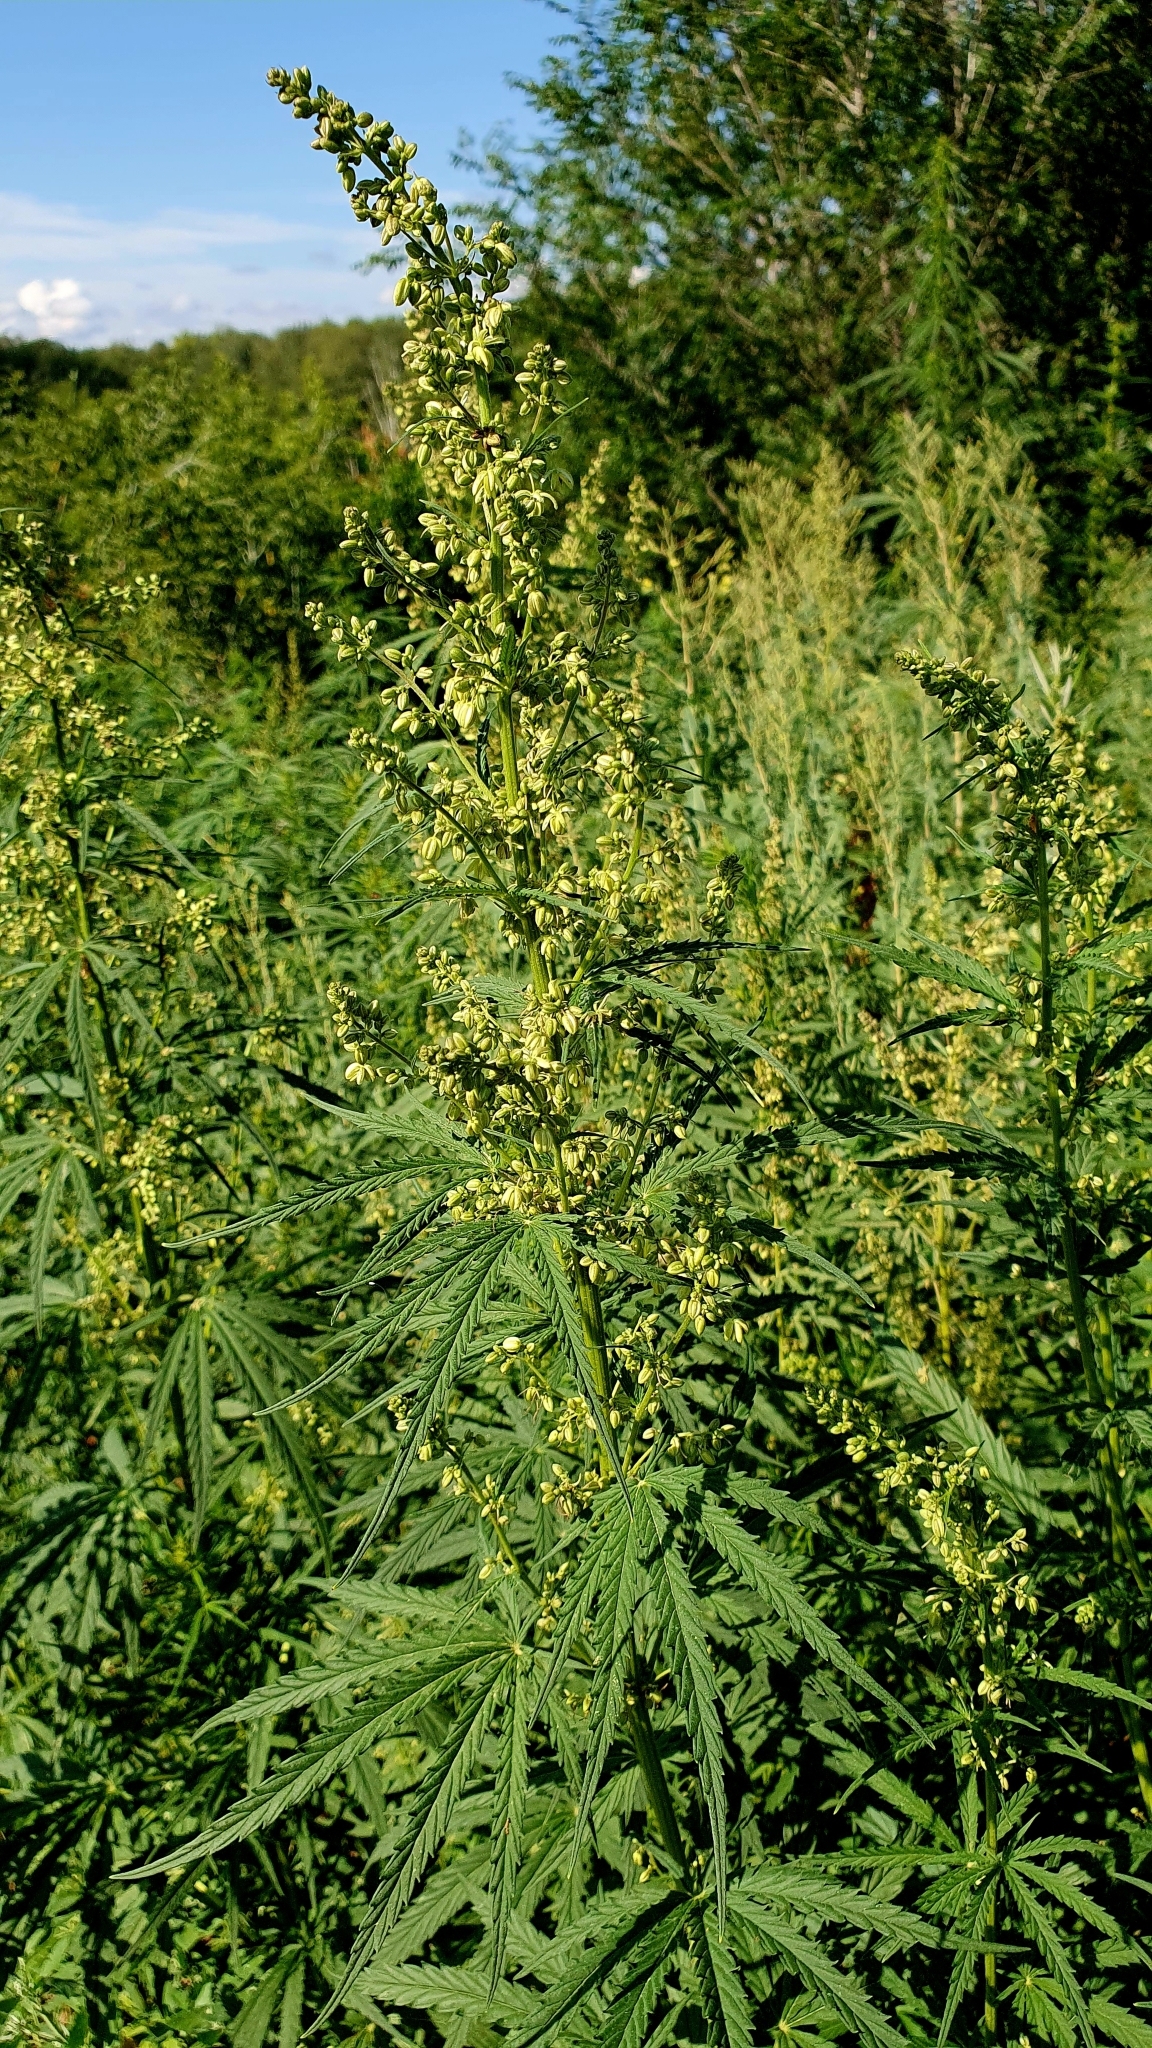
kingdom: Plantae
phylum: Tracheophyta
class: Magnoliopsida
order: Rosales
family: Cannabaceae
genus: Cannabis
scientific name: Cannabis sativa
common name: Hemp
